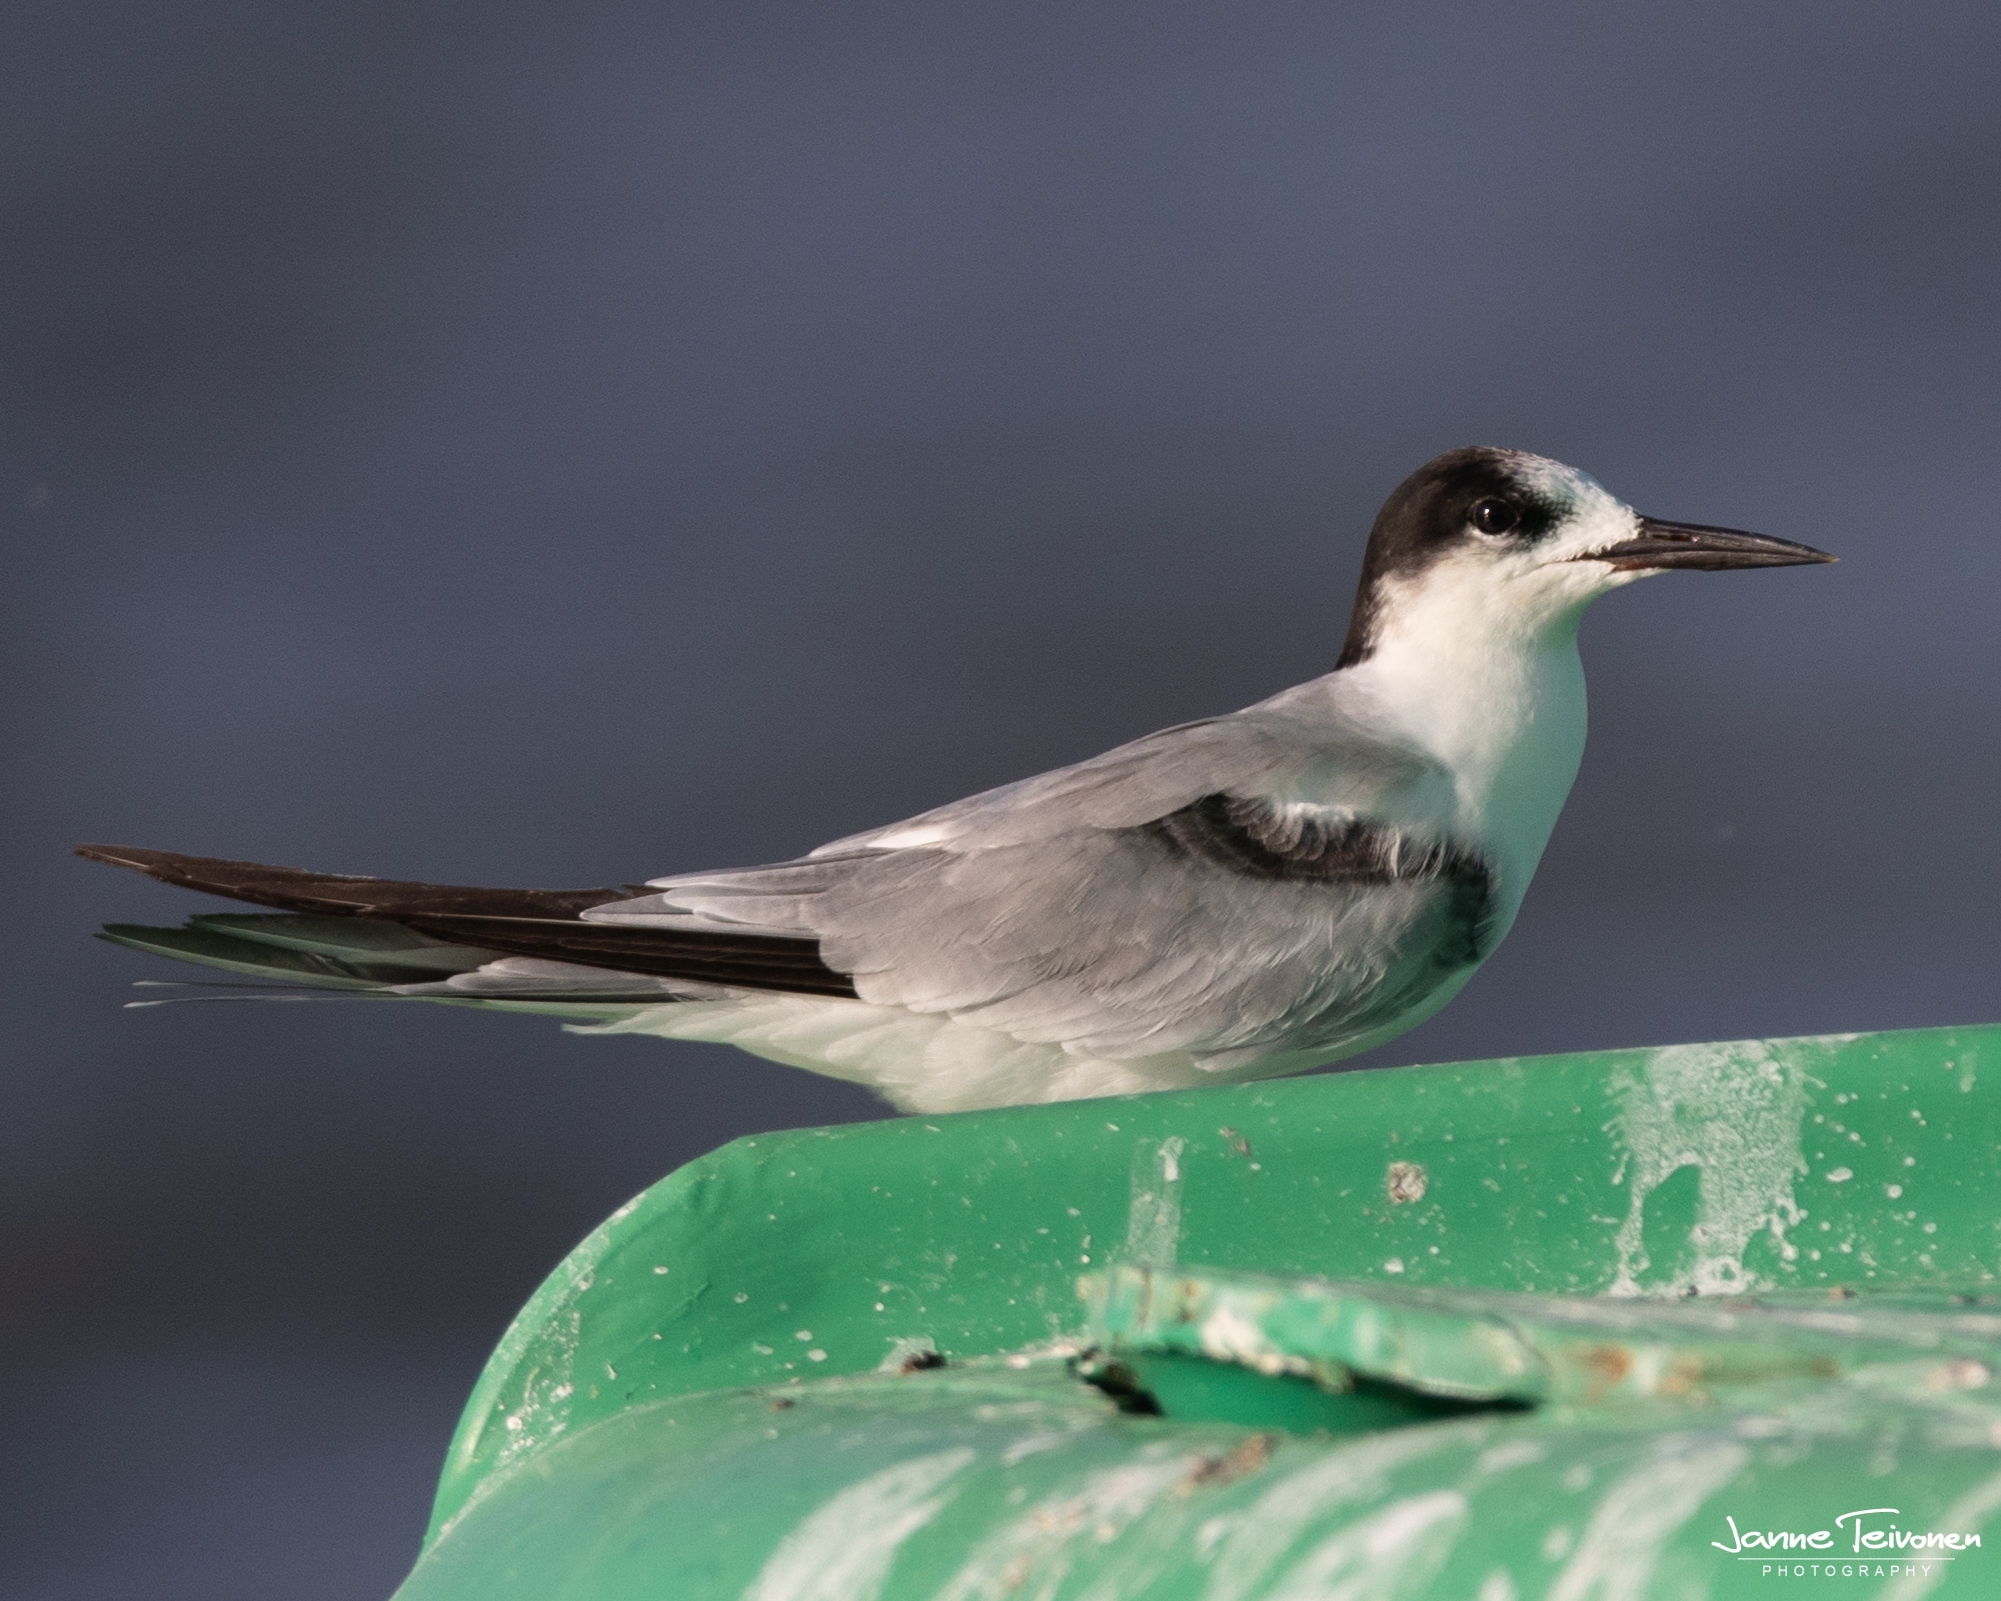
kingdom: Animalia
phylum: Chordata
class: Aves
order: Charadriiformes
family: Laridae
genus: Sterna
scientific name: Sterna hirundo
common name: Common tern
